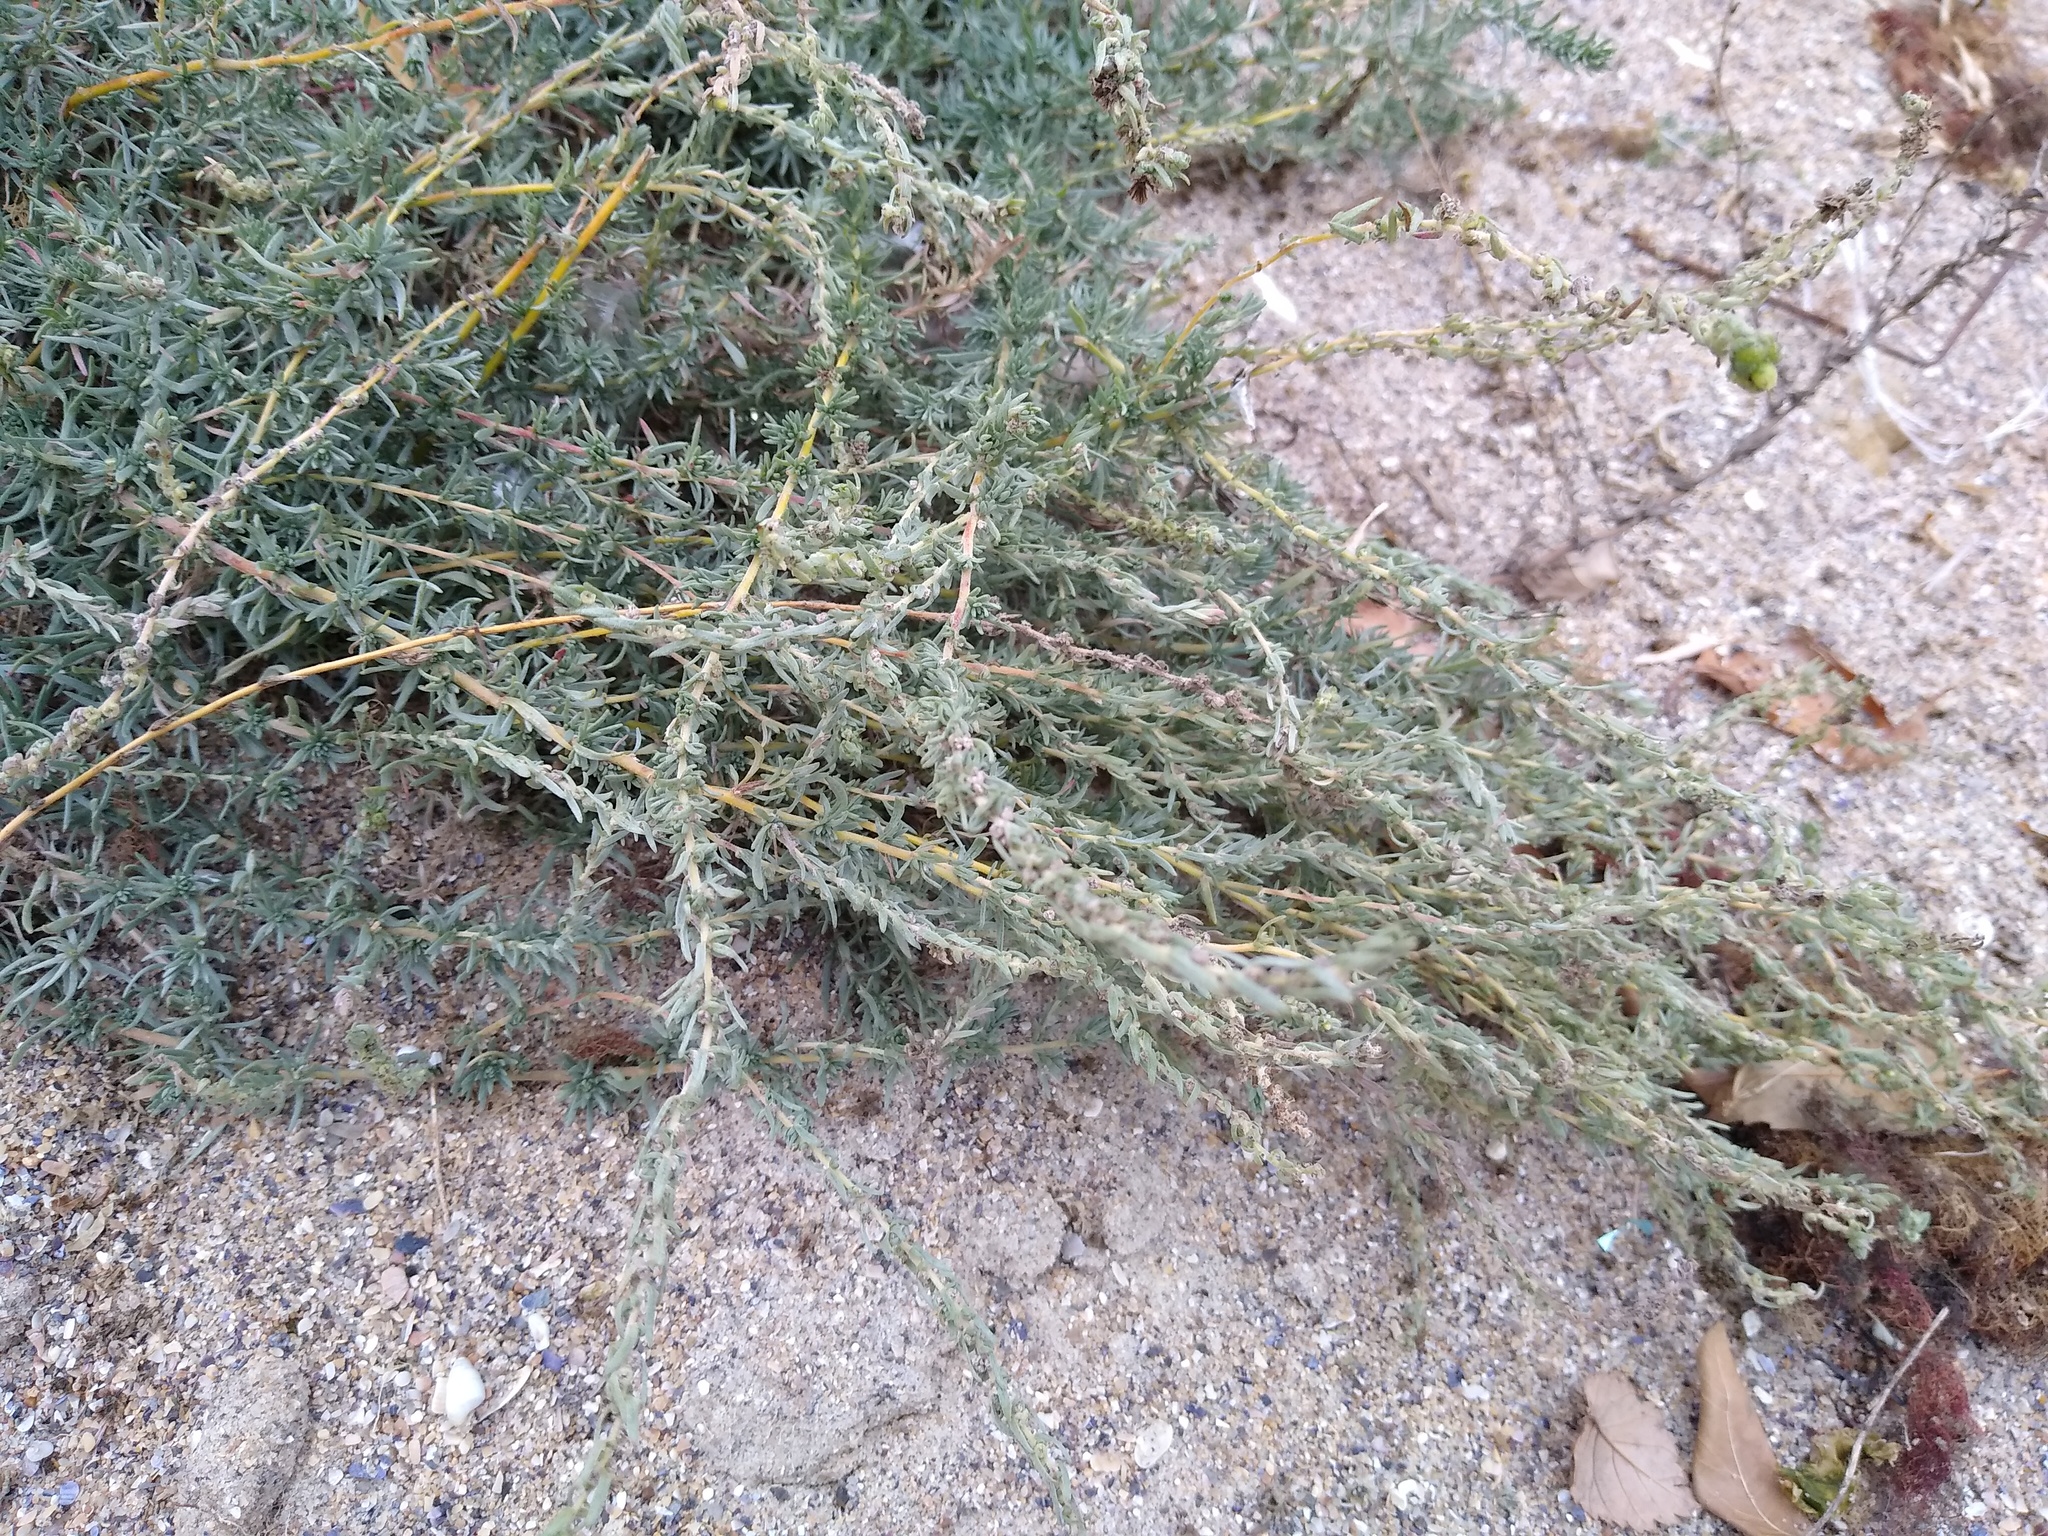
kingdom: Plantae
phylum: Tracheophyta
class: Magnoliopsida
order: Caryophyllales
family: Amaranthaceae
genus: Bassia
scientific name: Bassia prostrata
